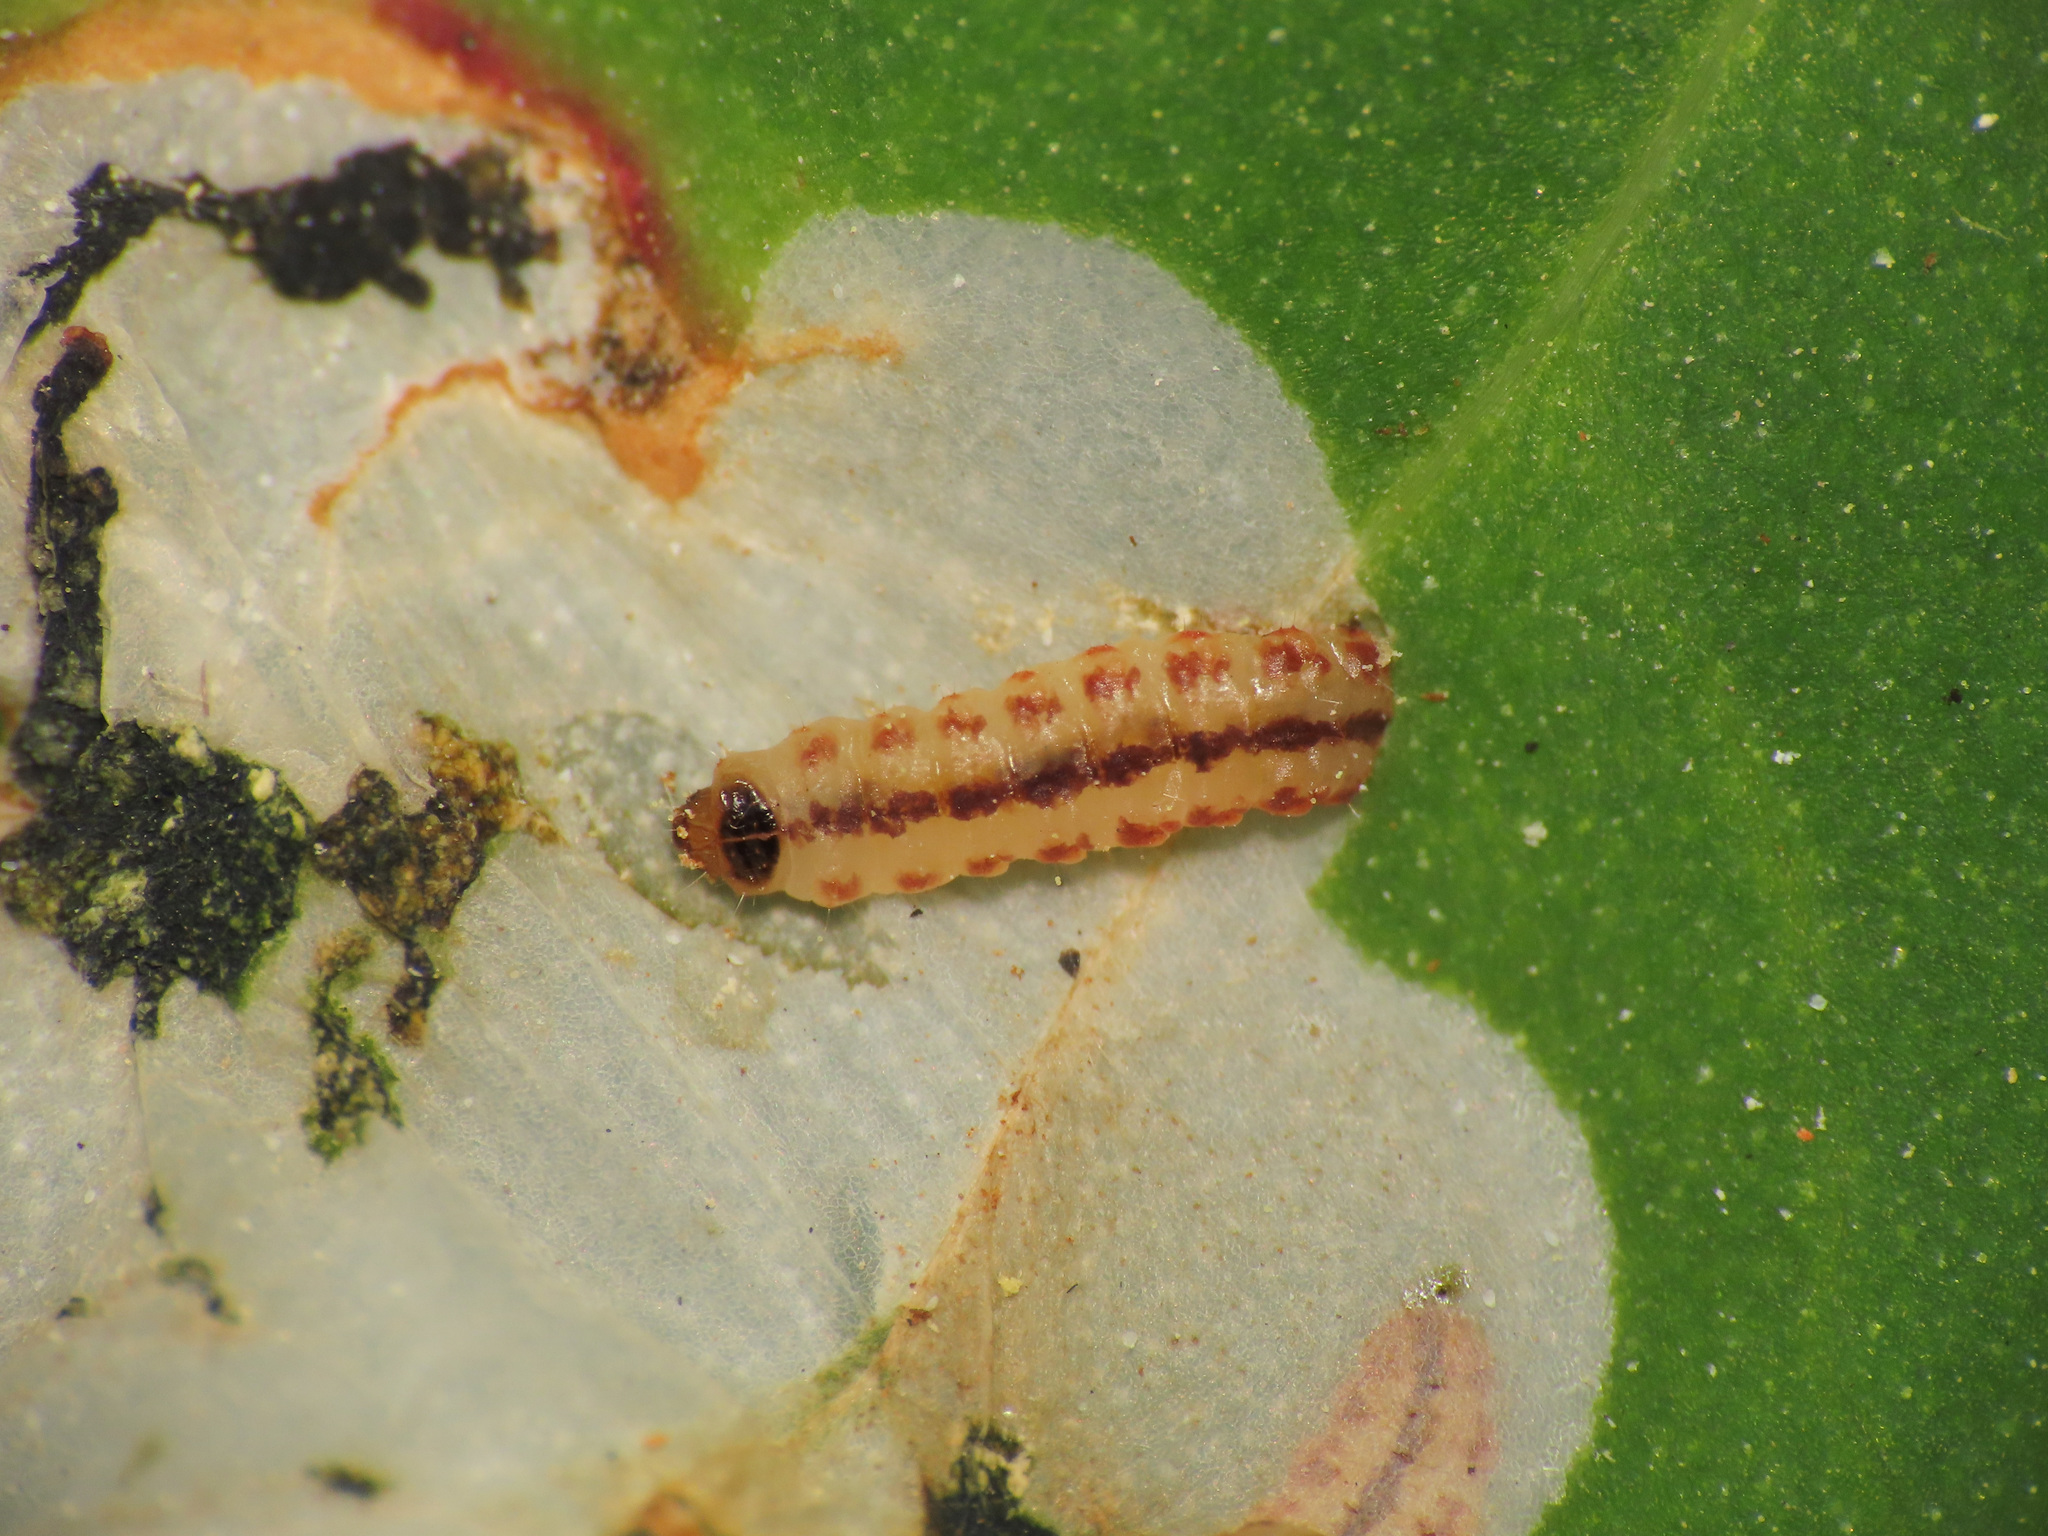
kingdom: Animalia
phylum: Arthropoda
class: Insecta
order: Lepidoptera
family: Gelechiidae
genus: Chrysoesthia
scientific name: Chrysoesthia sexguttella
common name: Moth
